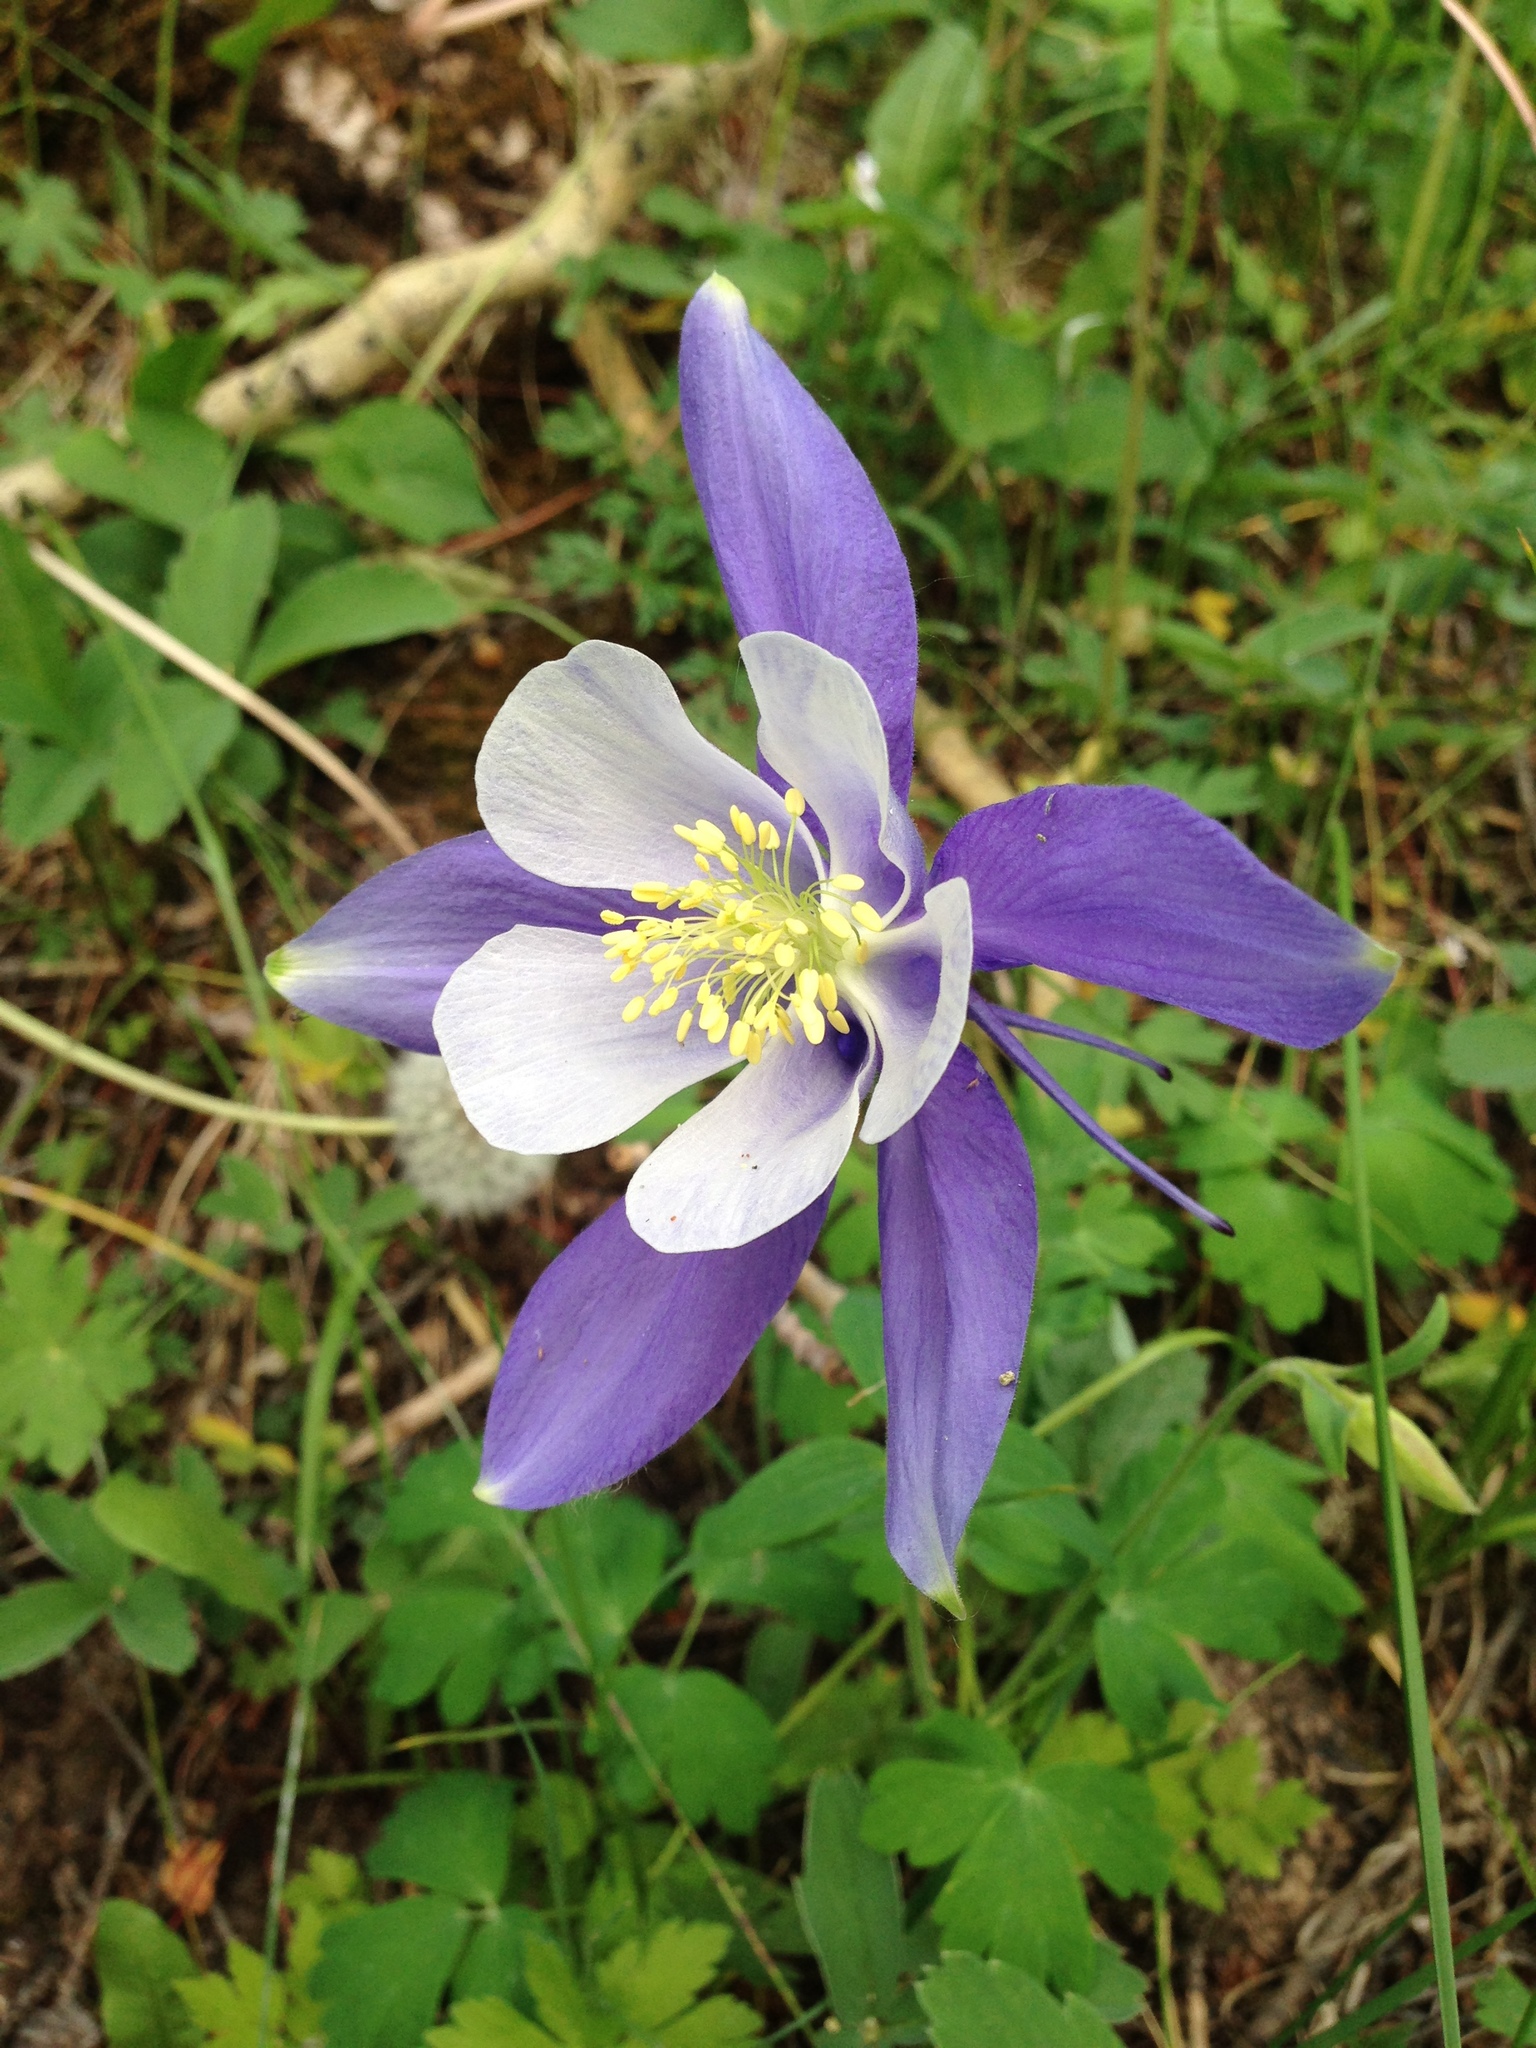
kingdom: Plantae
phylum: Tracheophyta
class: Magnoliopsida
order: Ranunculales
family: Ranunculaceae
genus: Aquilegia
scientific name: Aquilegia coerulea
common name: Rocky mountain columbine
